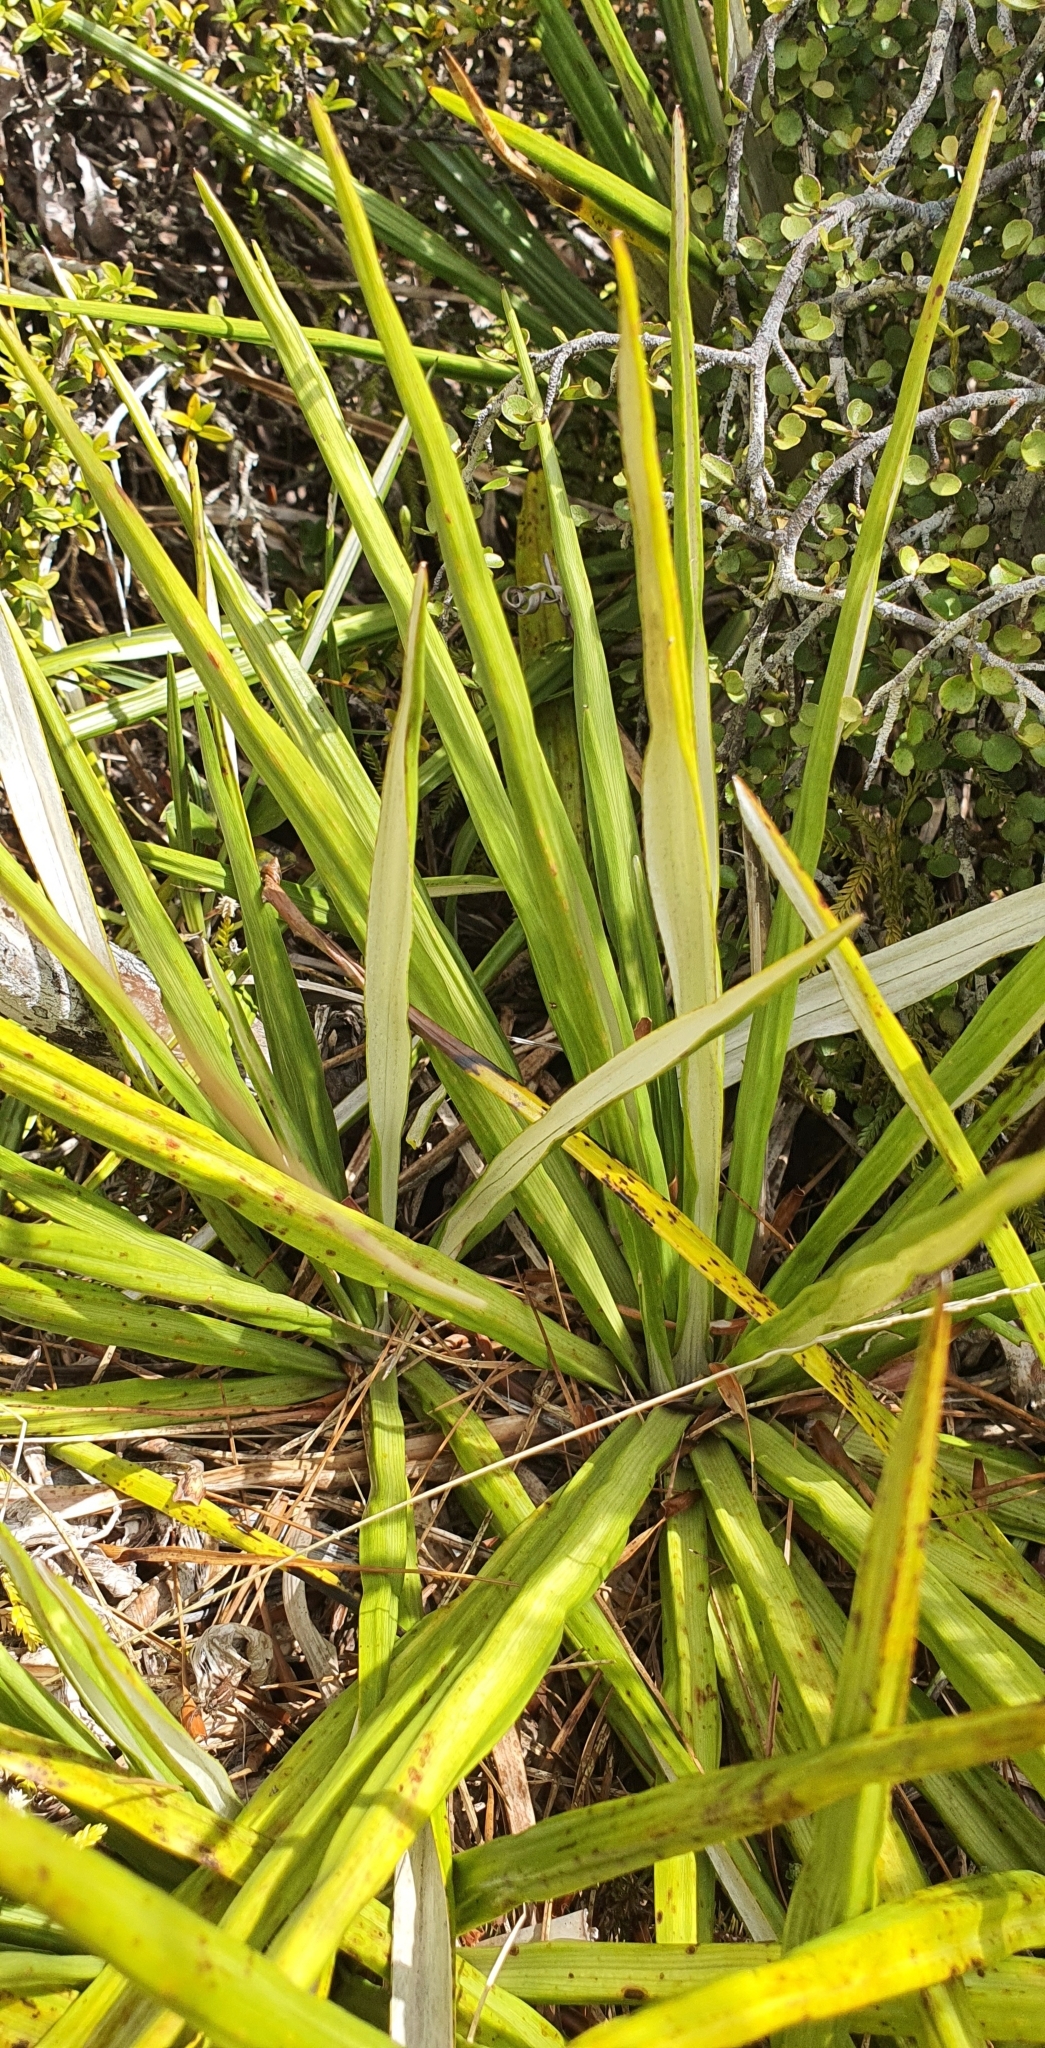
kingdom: Plantae
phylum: Tracheophyta
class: Magnoliopsida
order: Asterales
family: Asteraceae
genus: Celmisia
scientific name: Celmisia petriei
